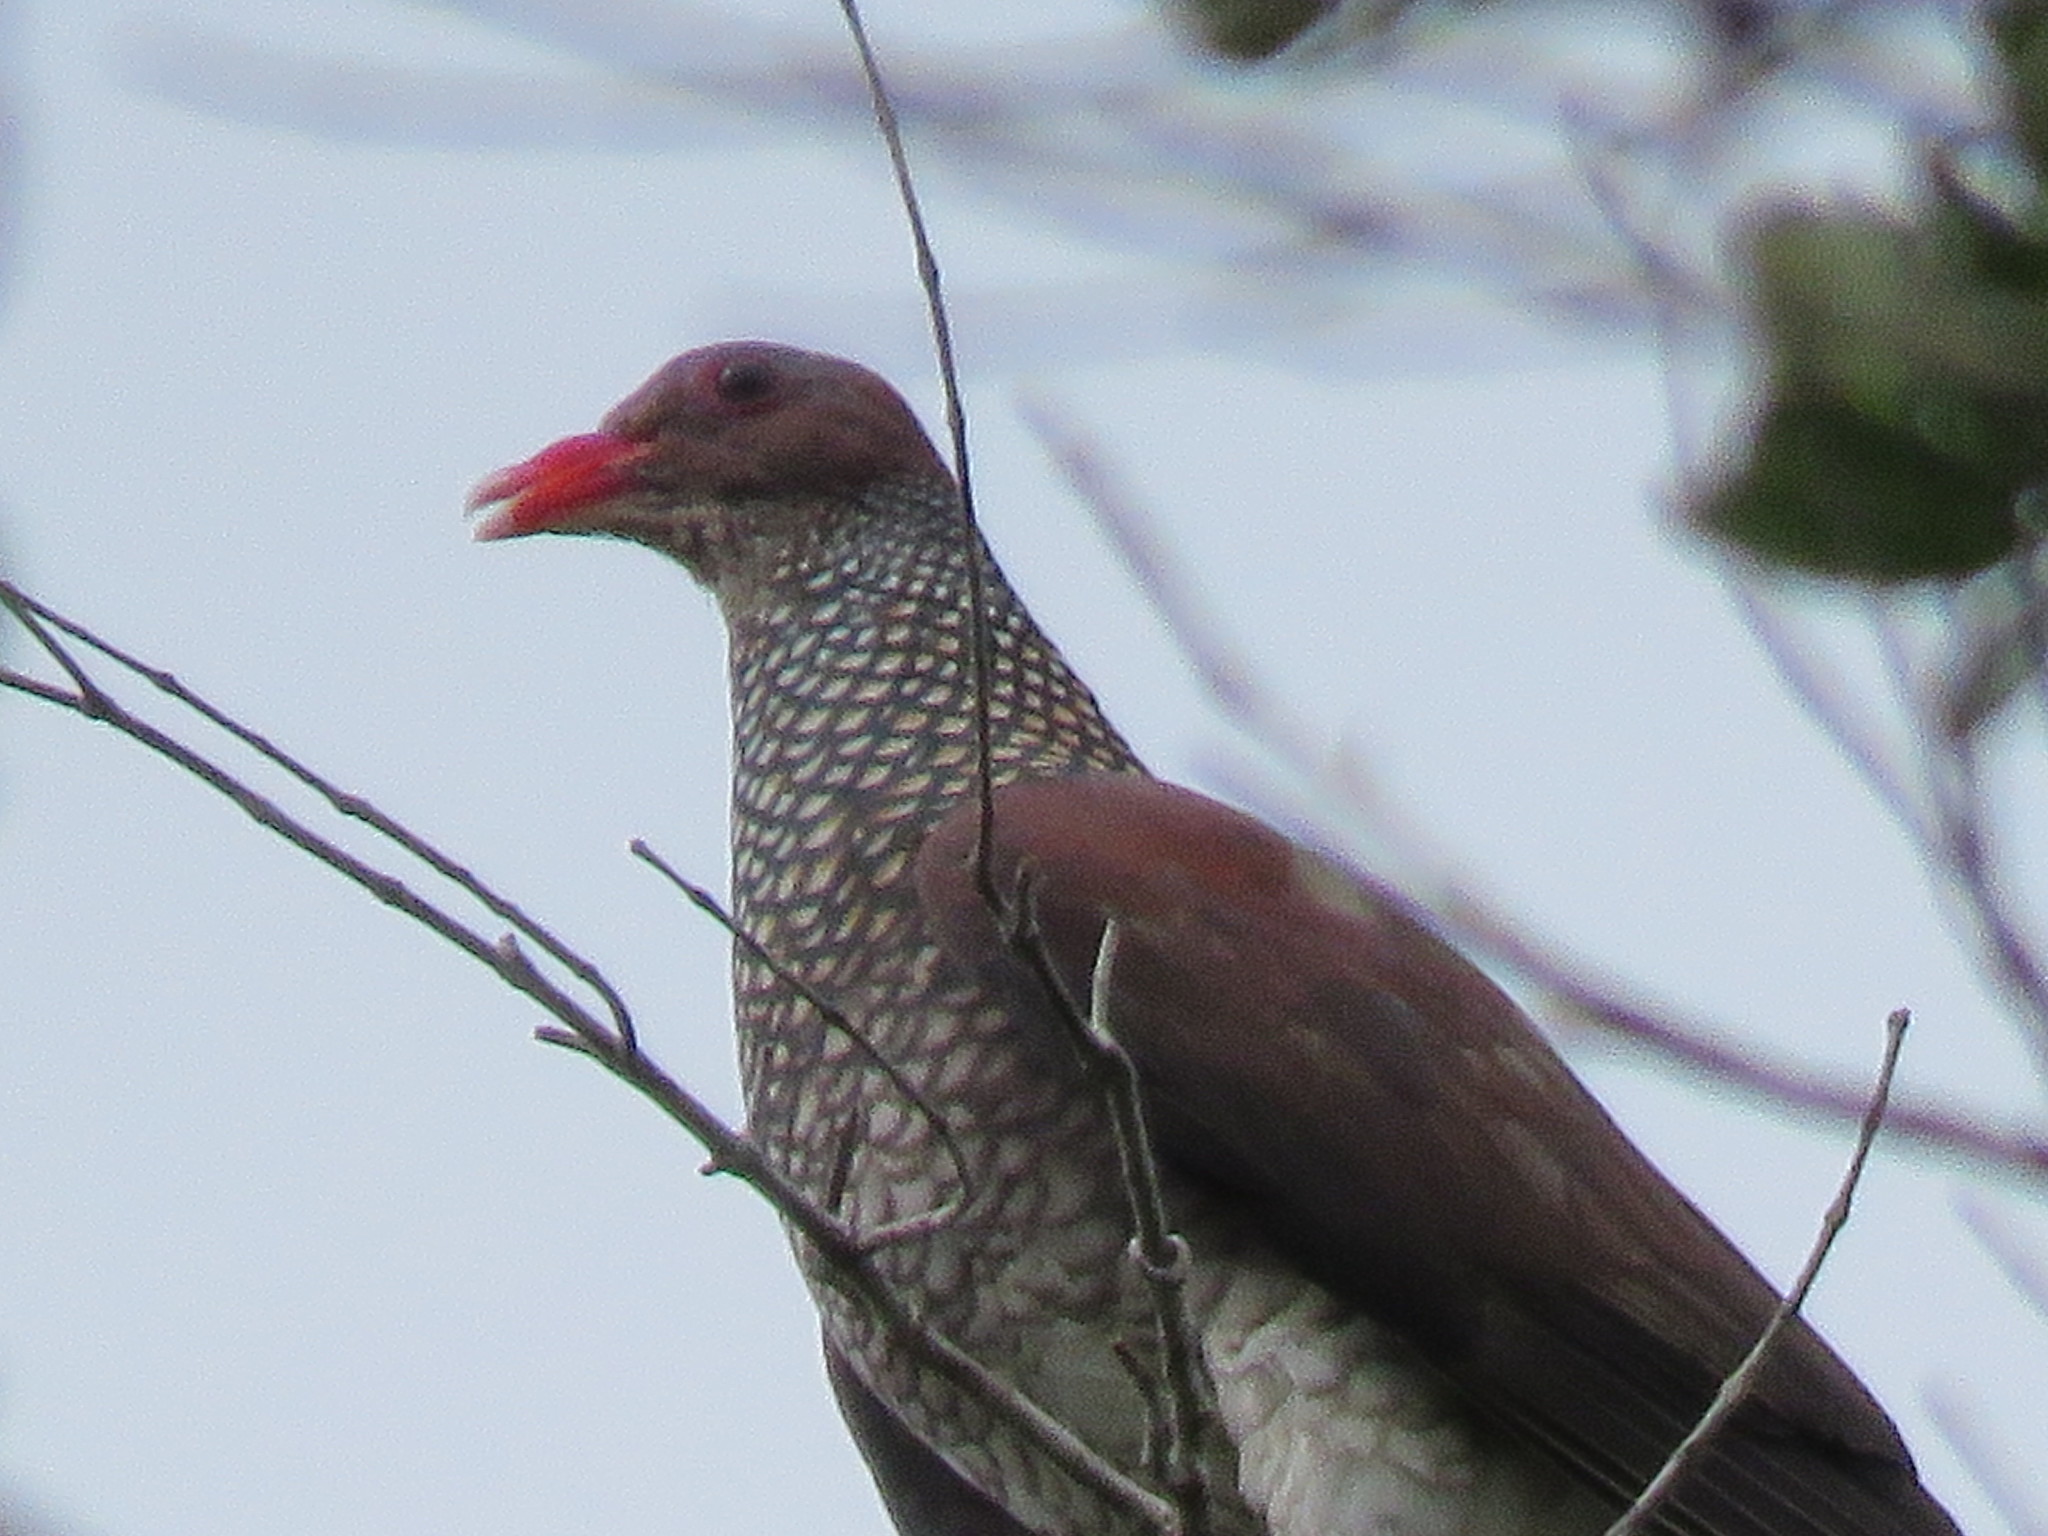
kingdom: Animalia
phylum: Chordata
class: Aves
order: Columbiformes
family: Columbidae
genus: Patagioenas
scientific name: Patagioenas speciosa
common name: Scaled pigeon
